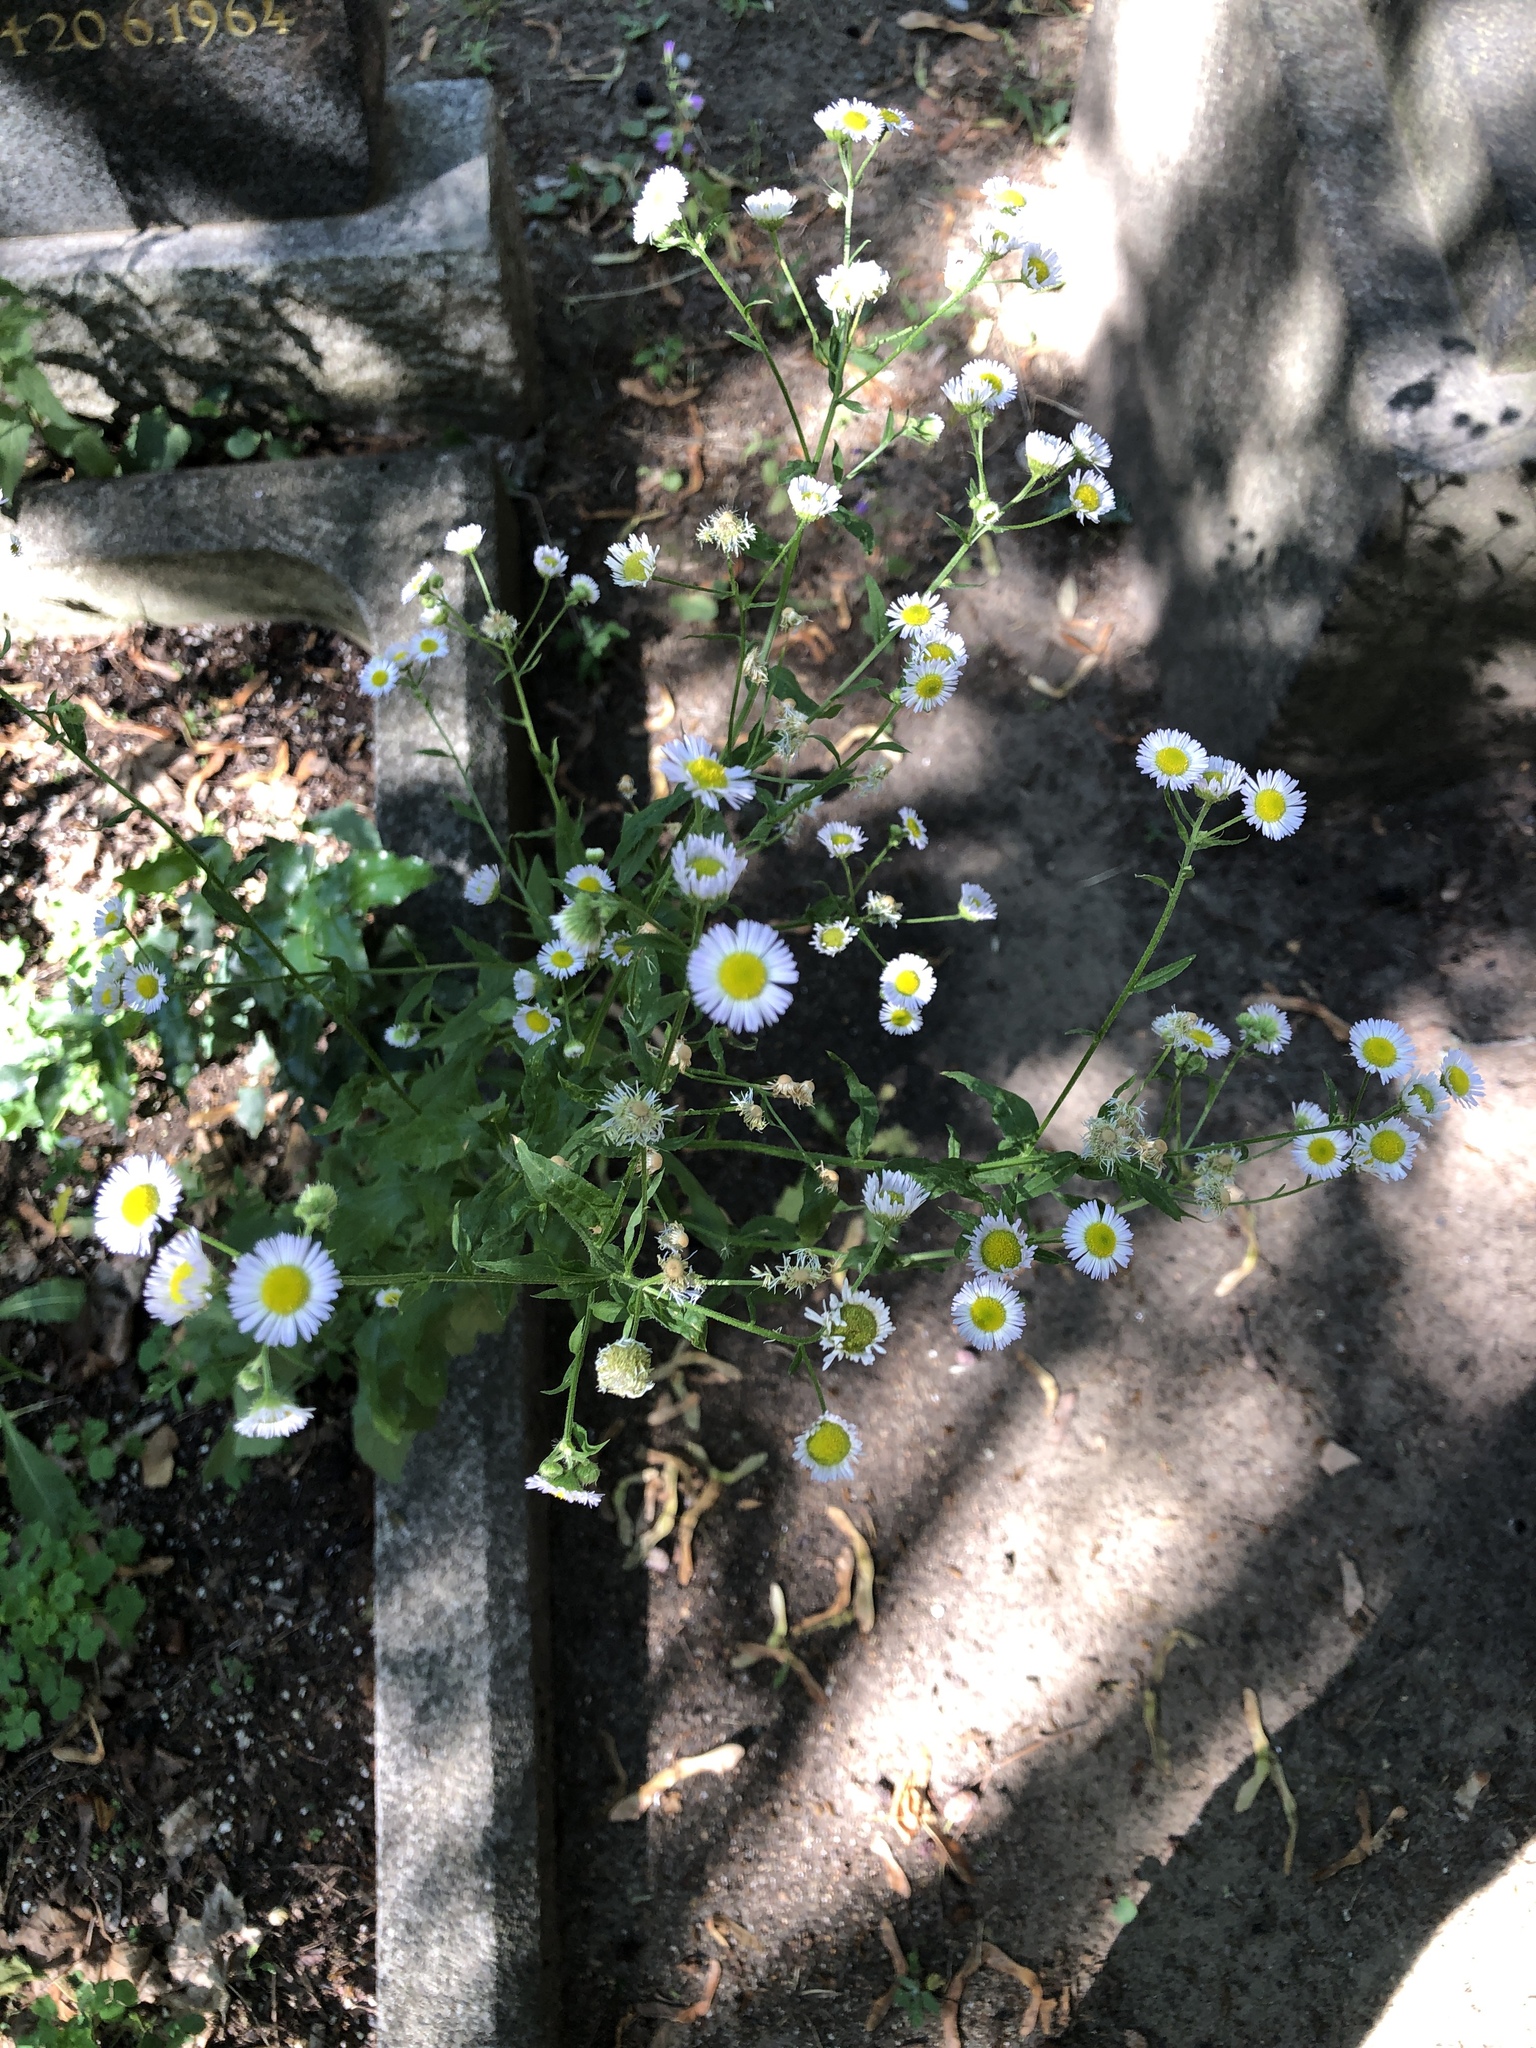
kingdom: Plantae
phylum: Tracheophyta
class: Magnoliopsida
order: Asterales
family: Asteraceae
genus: Erigeron
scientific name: Erigeron annuus
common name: Tall fleabane
